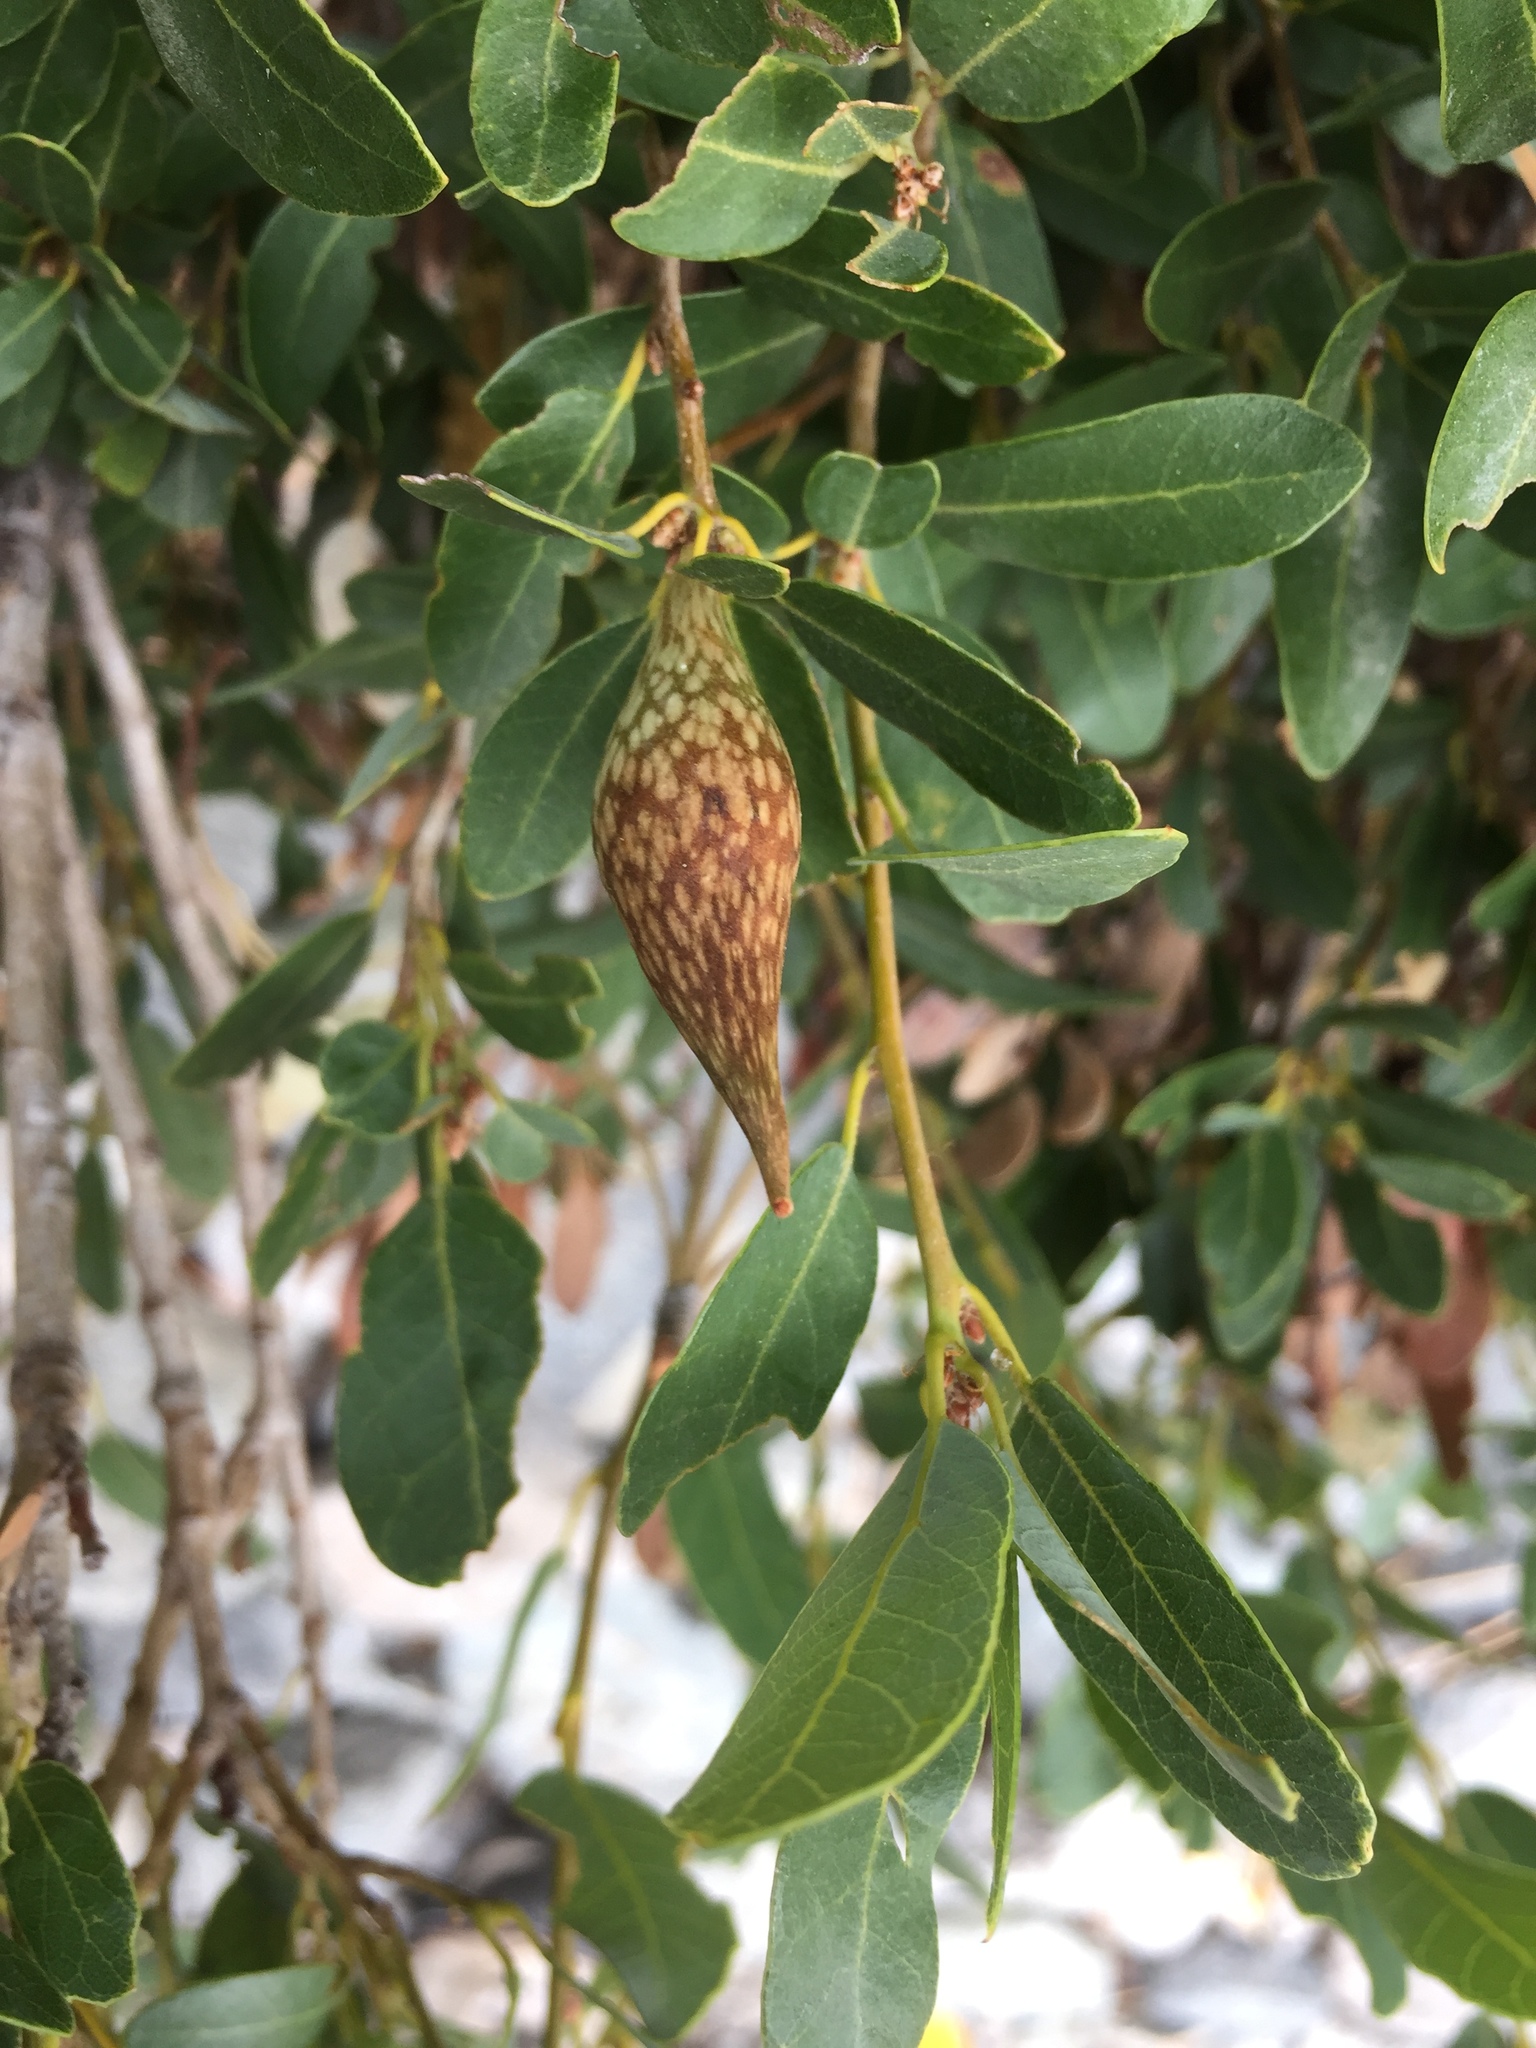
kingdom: Plantae
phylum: Tracheophyta
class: Magnoliopsida
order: Fagales
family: Fagaceae
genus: Quercus
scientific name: Quercus vacciniifolia
